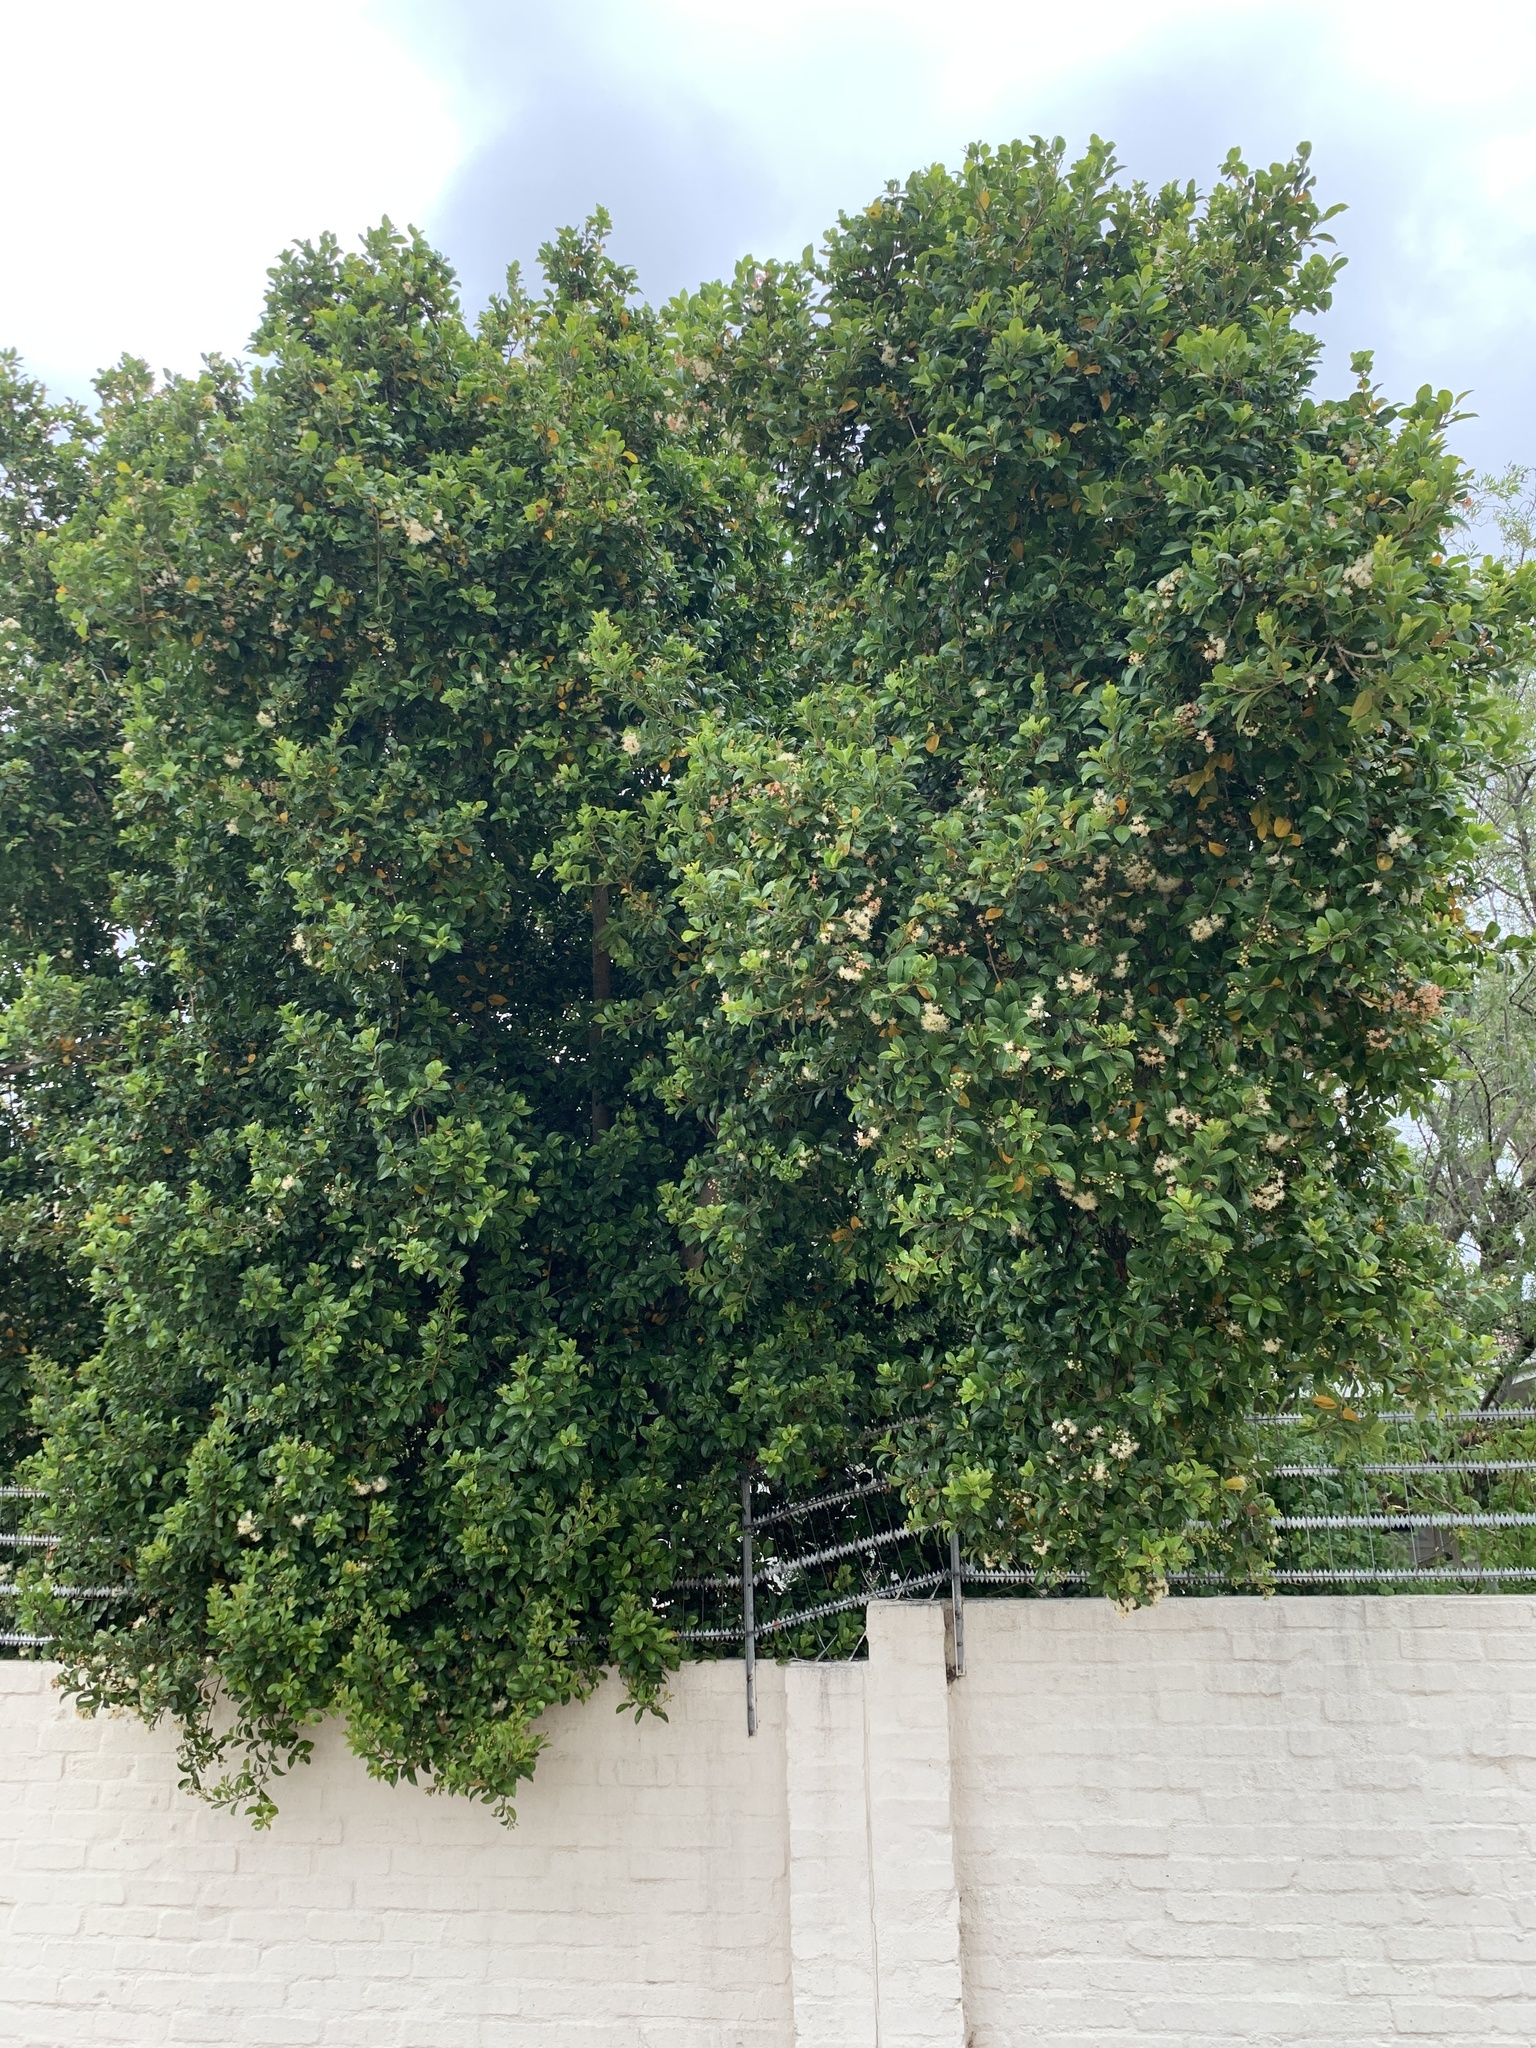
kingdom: Plantae
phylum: Tracheophyta
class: Magnoliopsida
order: Myrtales
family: Myrtaceae
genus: Syzygium
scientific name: Syzygium australe
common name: Australian brush-cherry
